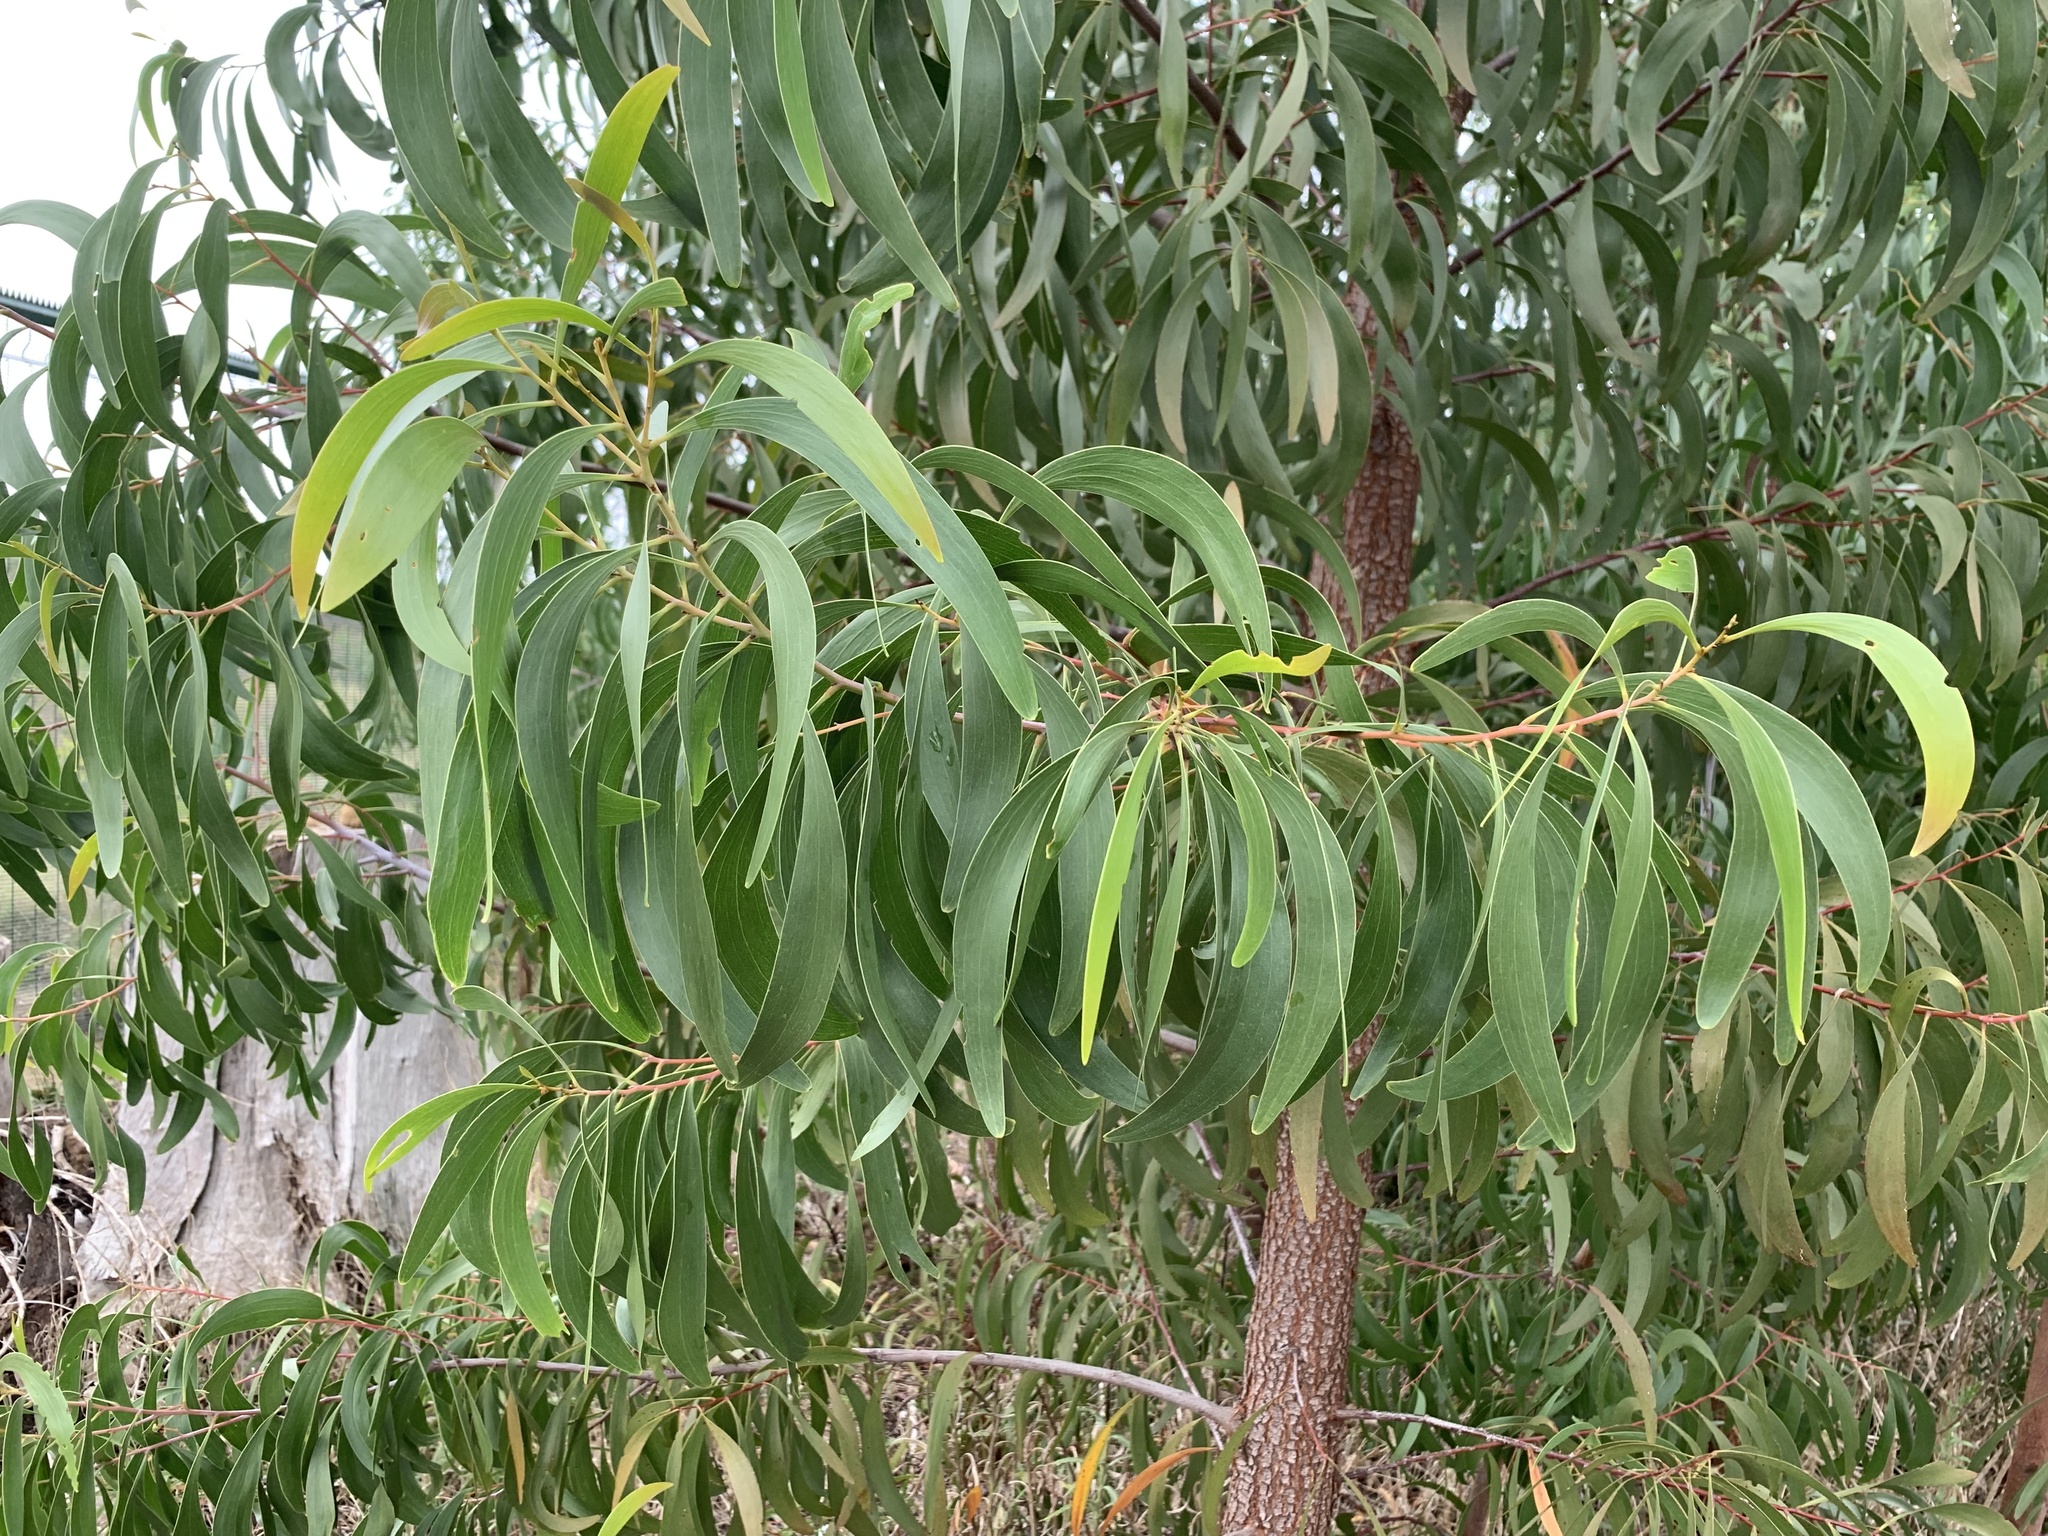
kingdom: Plantae
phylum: Tracheophyta
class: Magnoliopsida
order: Fabales
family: Fabaceae
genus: Acacia
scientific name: Acacia implexa
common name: Black wattle
